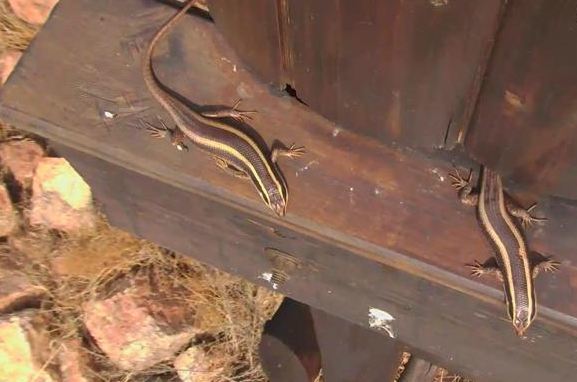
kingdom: Animalia
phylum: Chordata
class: Squamata
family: Scincidae
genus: Trachylepis
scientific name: Trachylepis striata
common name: African striped mabuya
